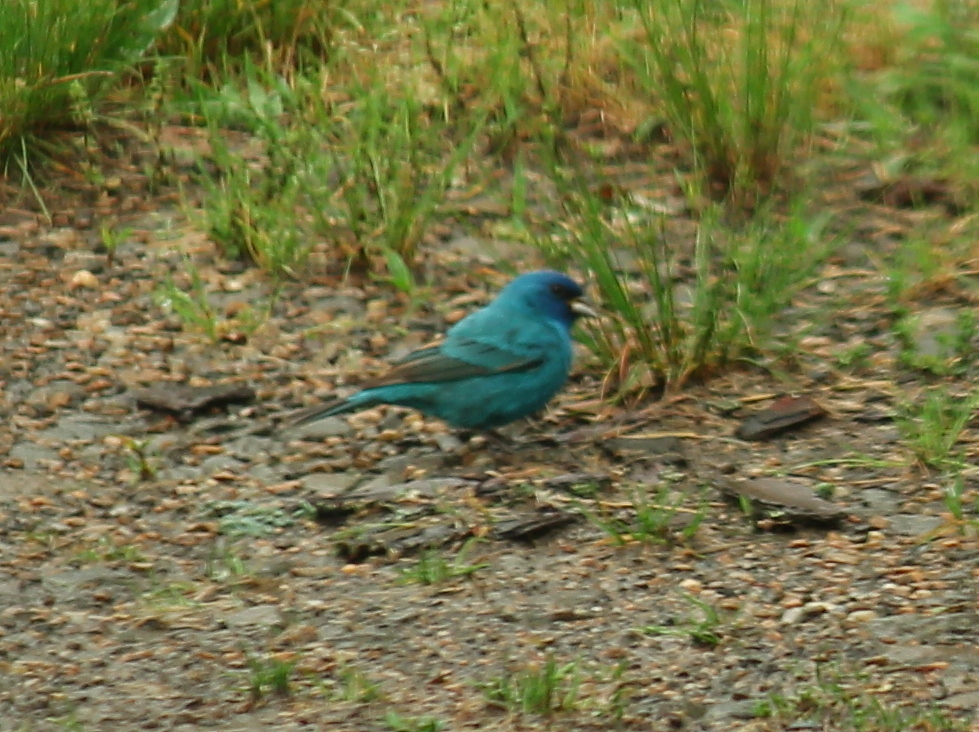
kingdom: Animalia
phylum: Chordata
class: Aves
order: Passeriformes
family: Cardinalidae
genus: Passerina
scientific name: Passerina cyanea
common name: Indigo bunting
